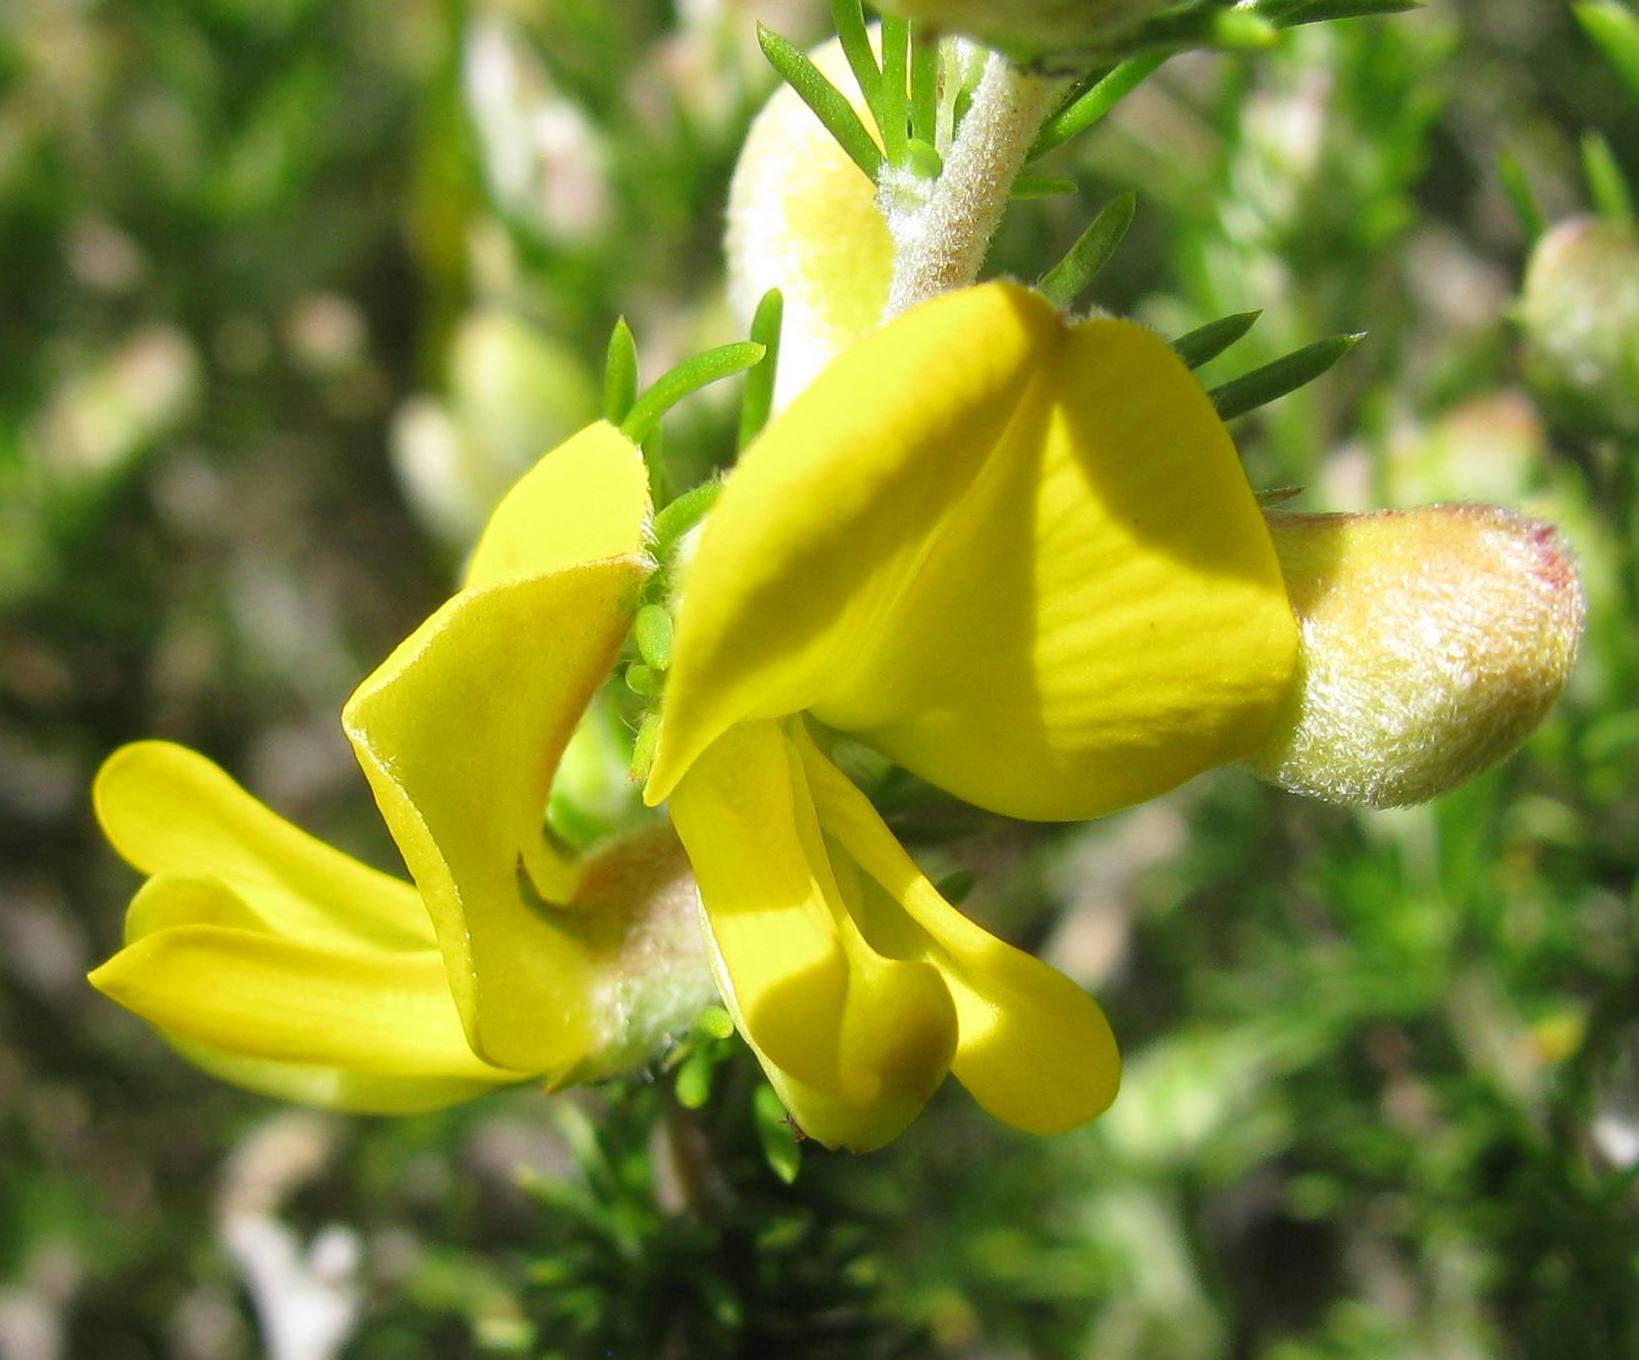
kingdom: Plantae
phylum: Tracheophyta
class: Magnoliopsida
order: Fabales
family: Fabaceae
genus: Aspalathus
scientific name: Aspalathus laricifolia
